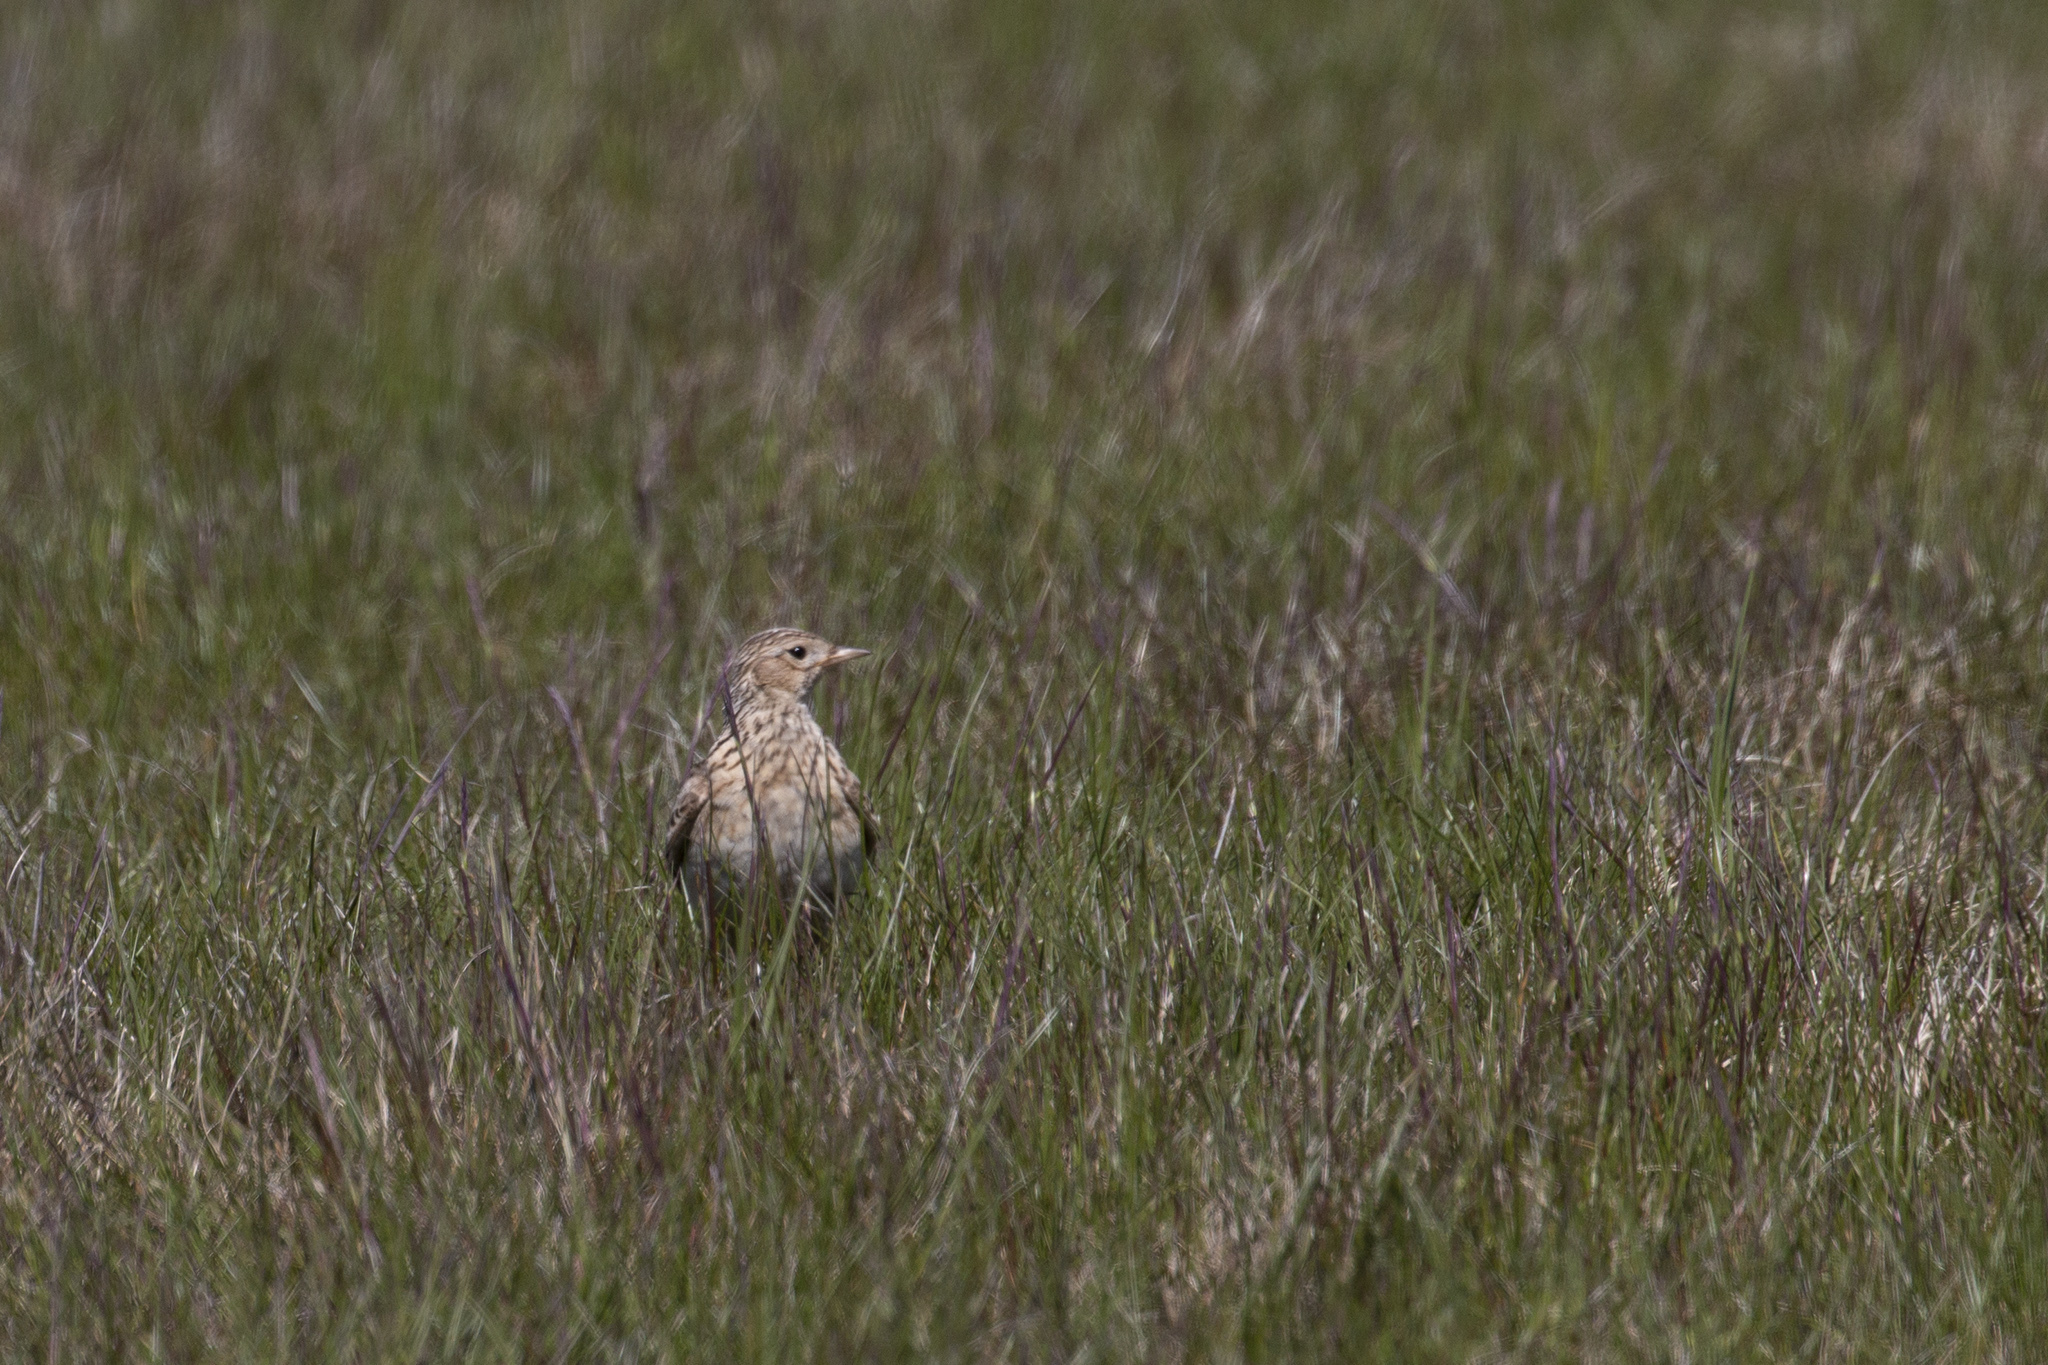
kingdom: Animalia
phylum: Chordata
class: Aves
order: Passeriformes
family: Alaudidae
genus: Alauda
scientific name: Alauda arvensis
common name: Eurasian skylark
